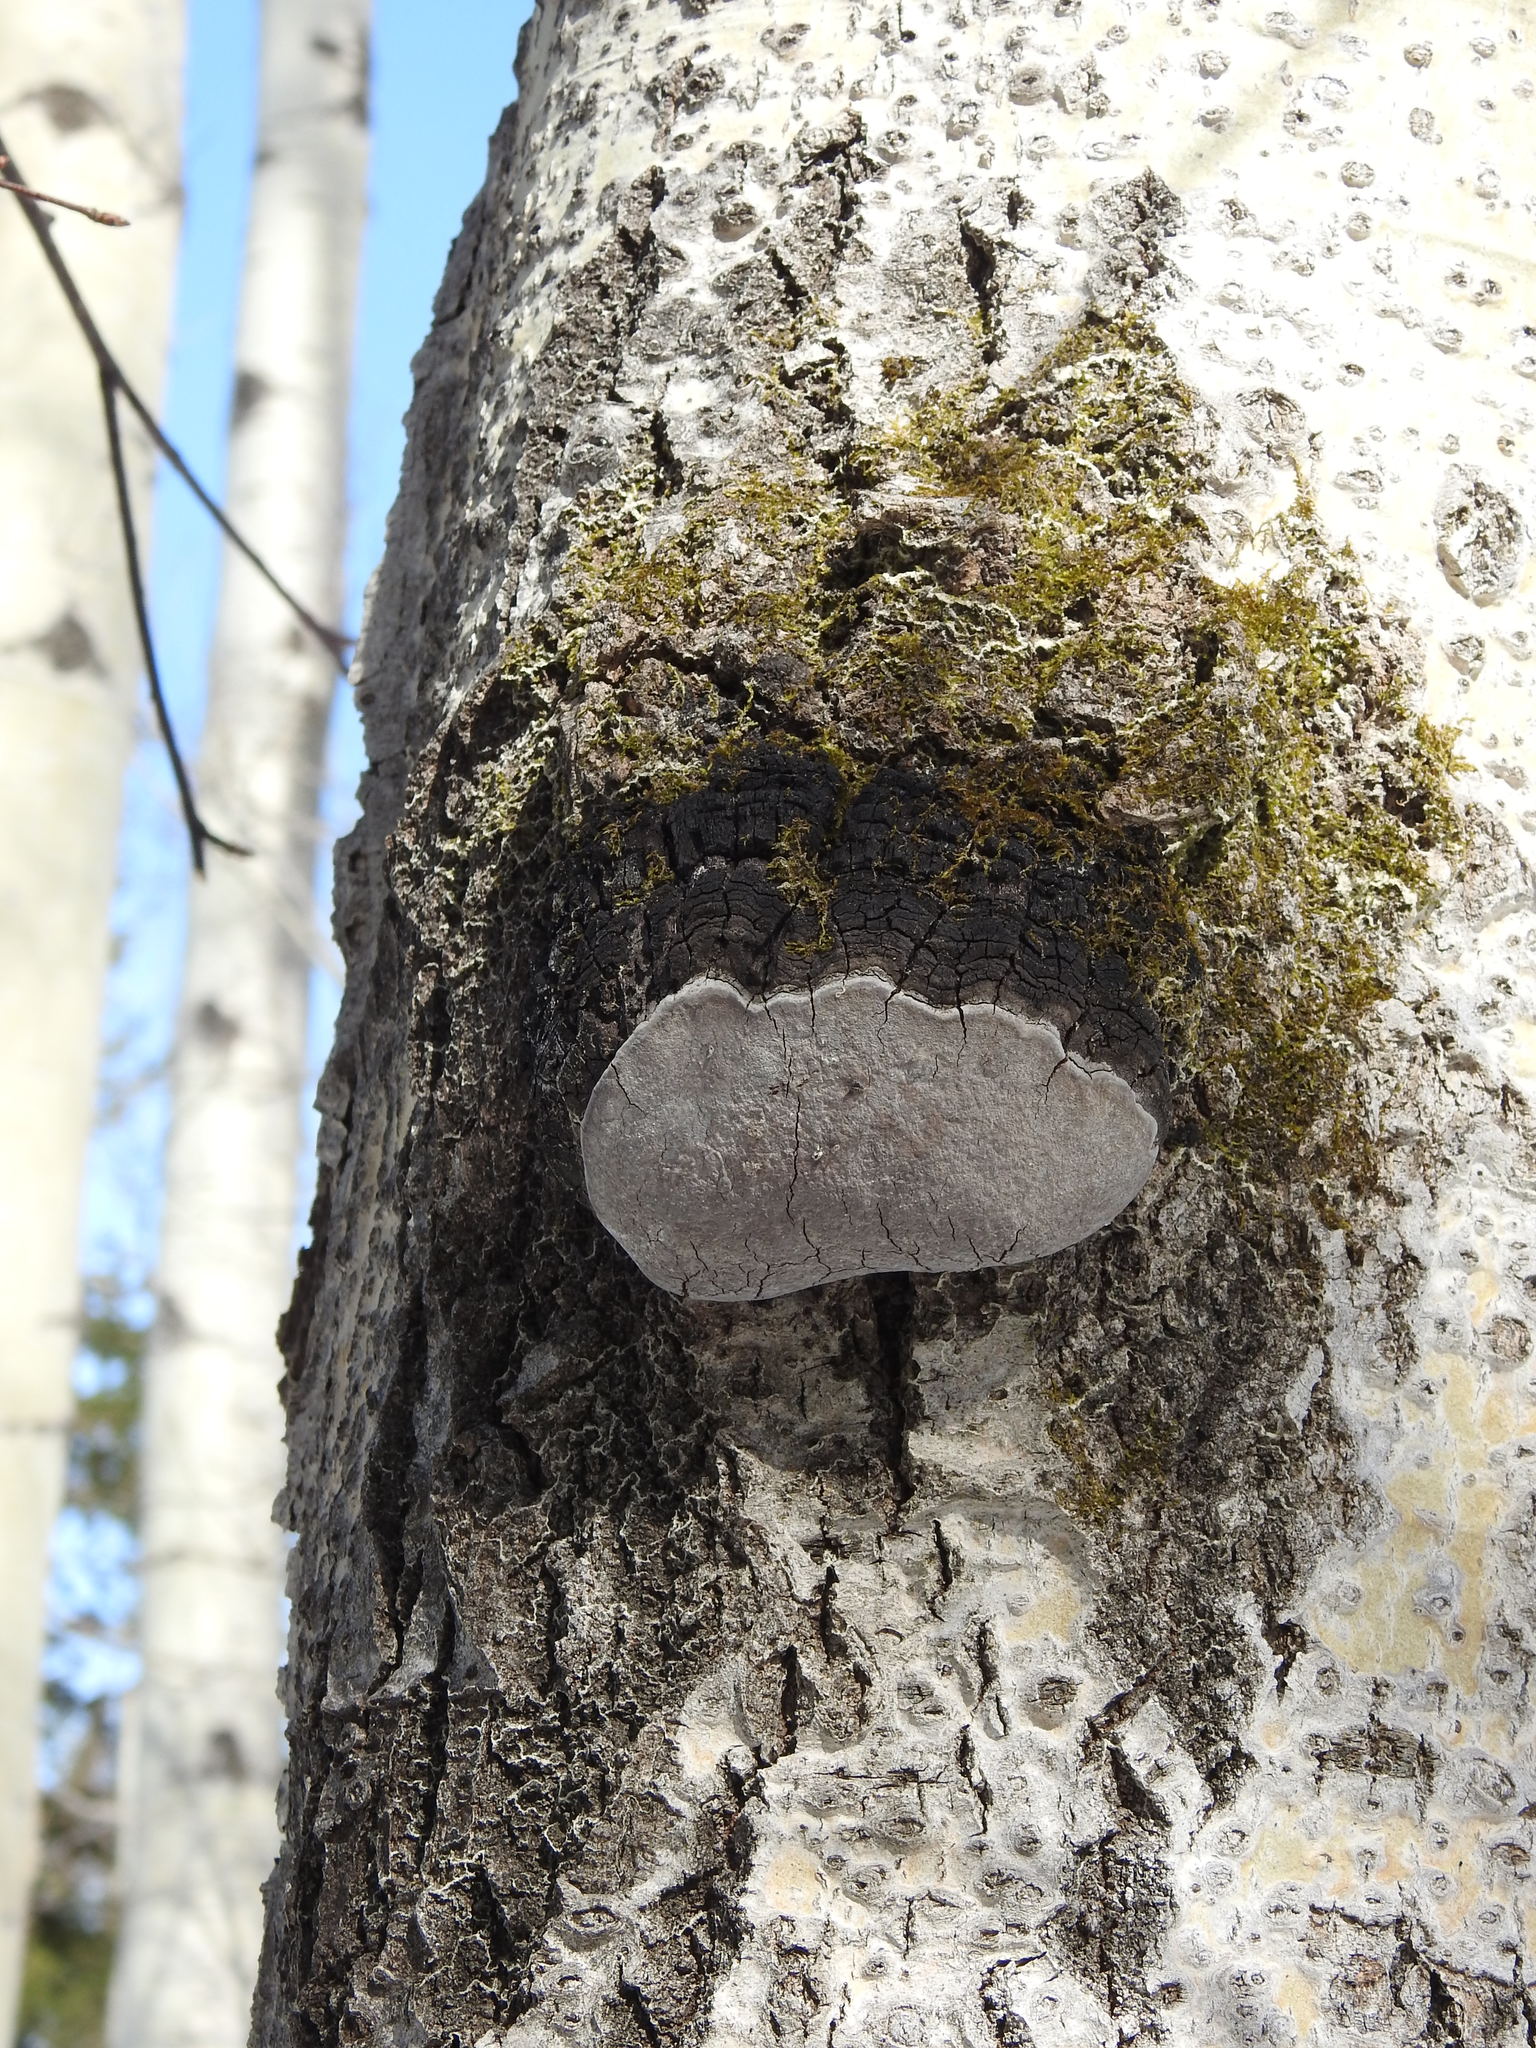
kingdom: Fungi
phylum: Basidiomycota
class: Agaricomycetes
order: Hymenochaetales
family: Hymenochaetaceae
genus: Phellinus
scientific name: Phellinus tremulae
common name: Aspen bracket
